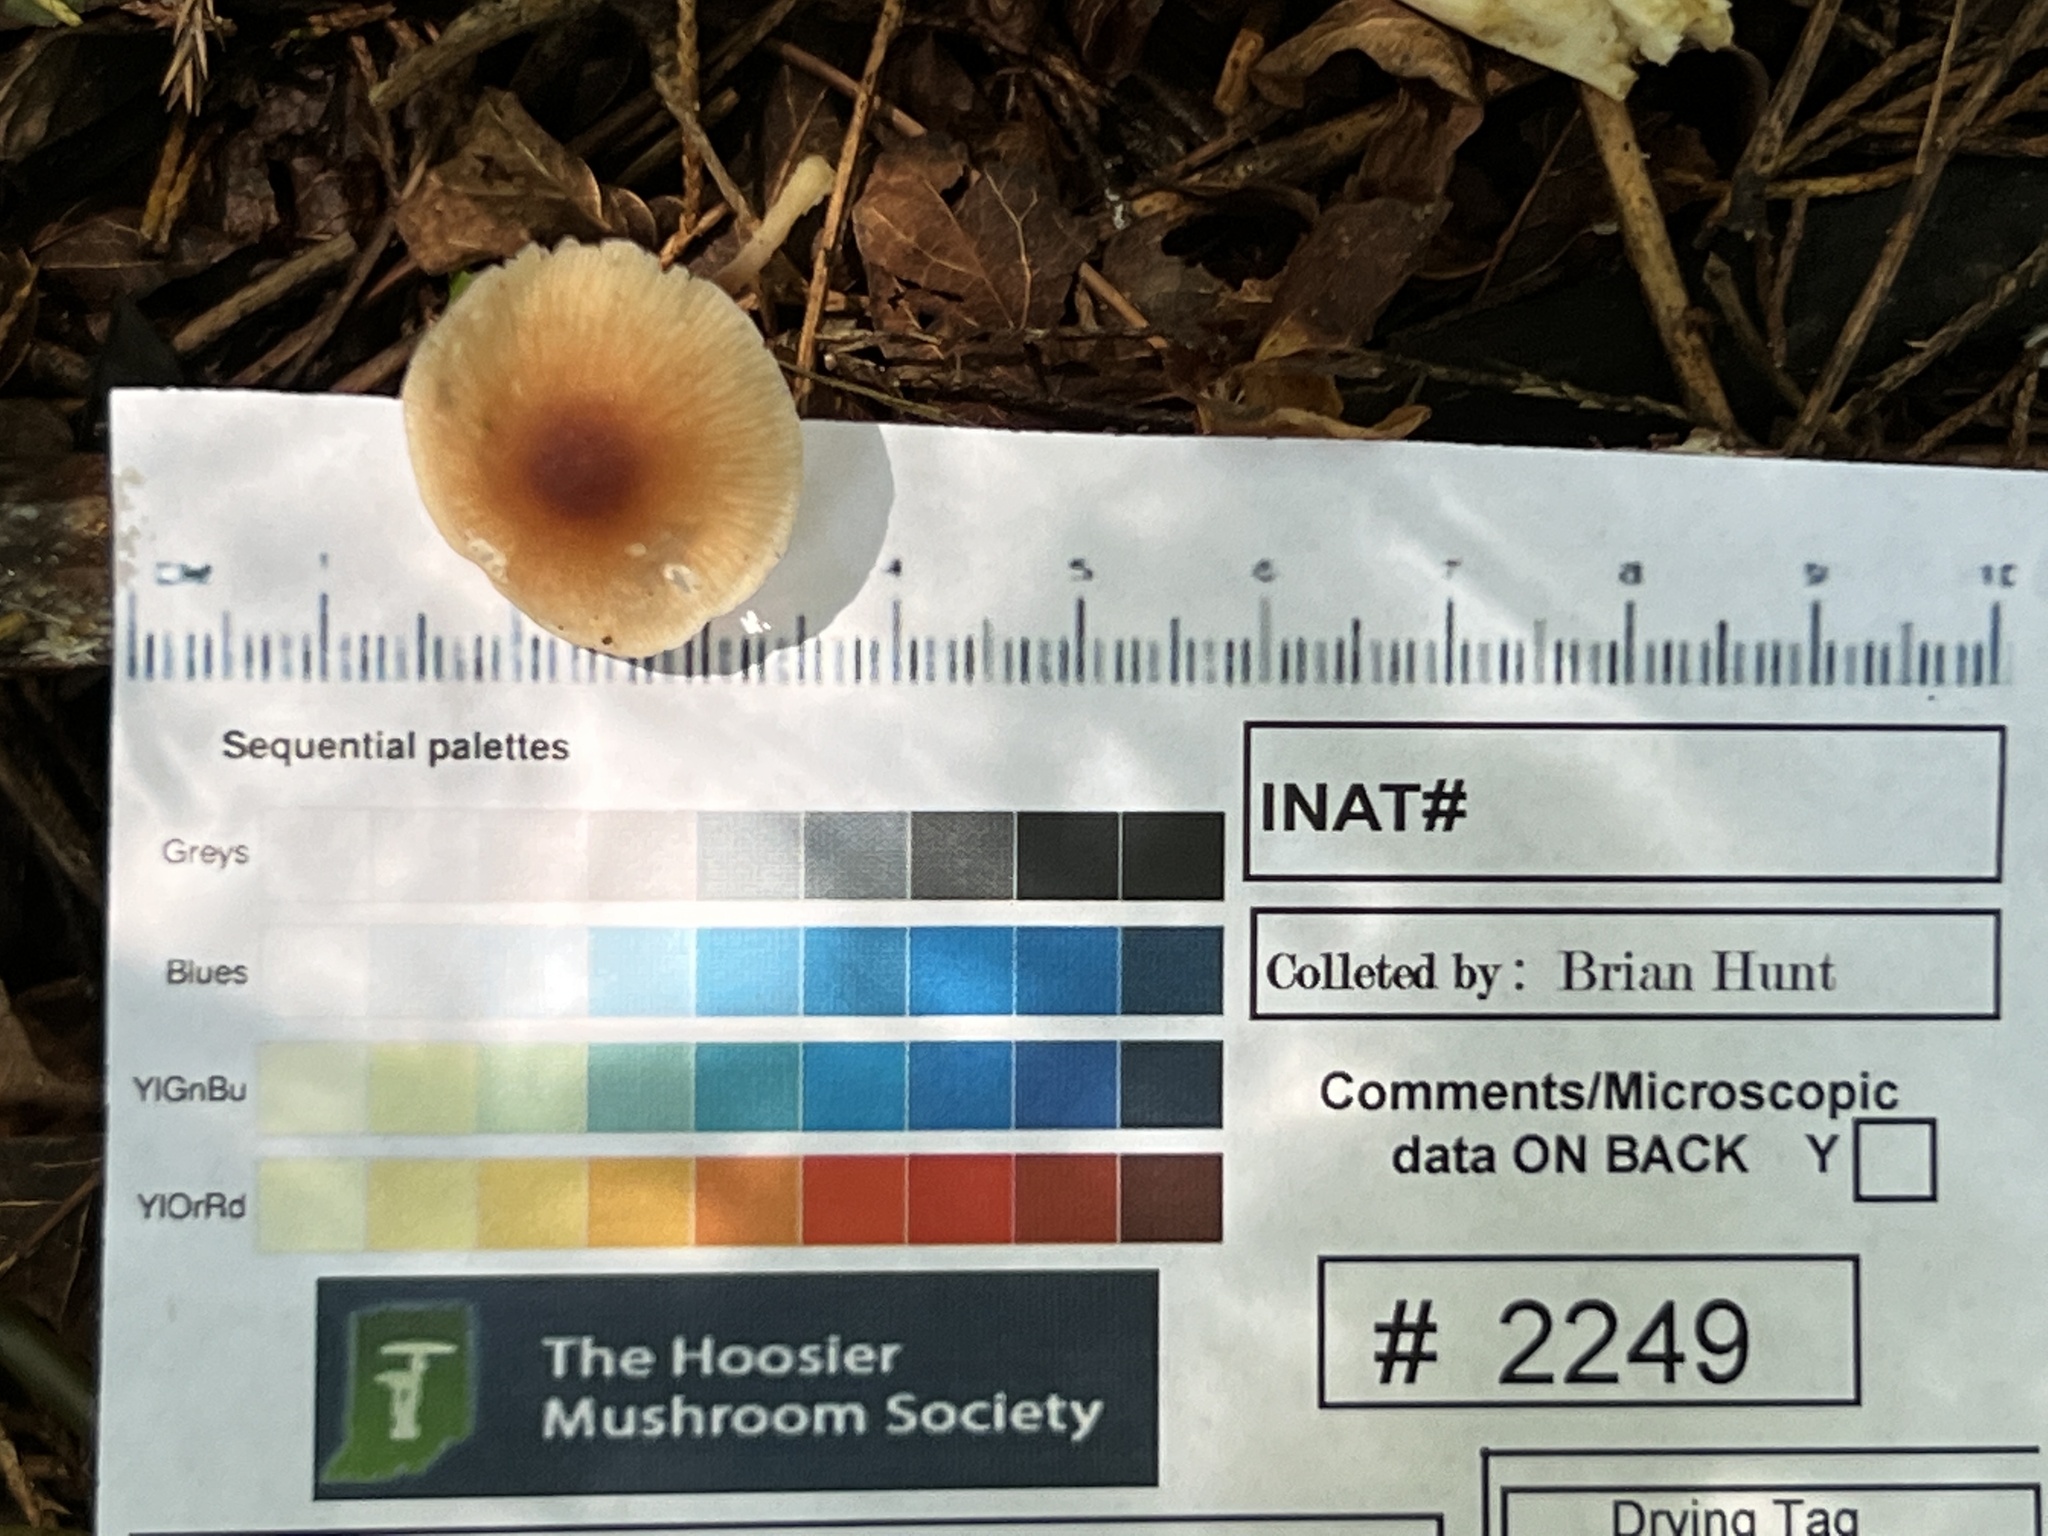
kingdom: Fungi
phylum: Basidiomycota
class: Agaricomycetes
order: Agaricales
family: Omphalotaceae
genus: Gymnopus
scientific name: Gymnopus barbipes
